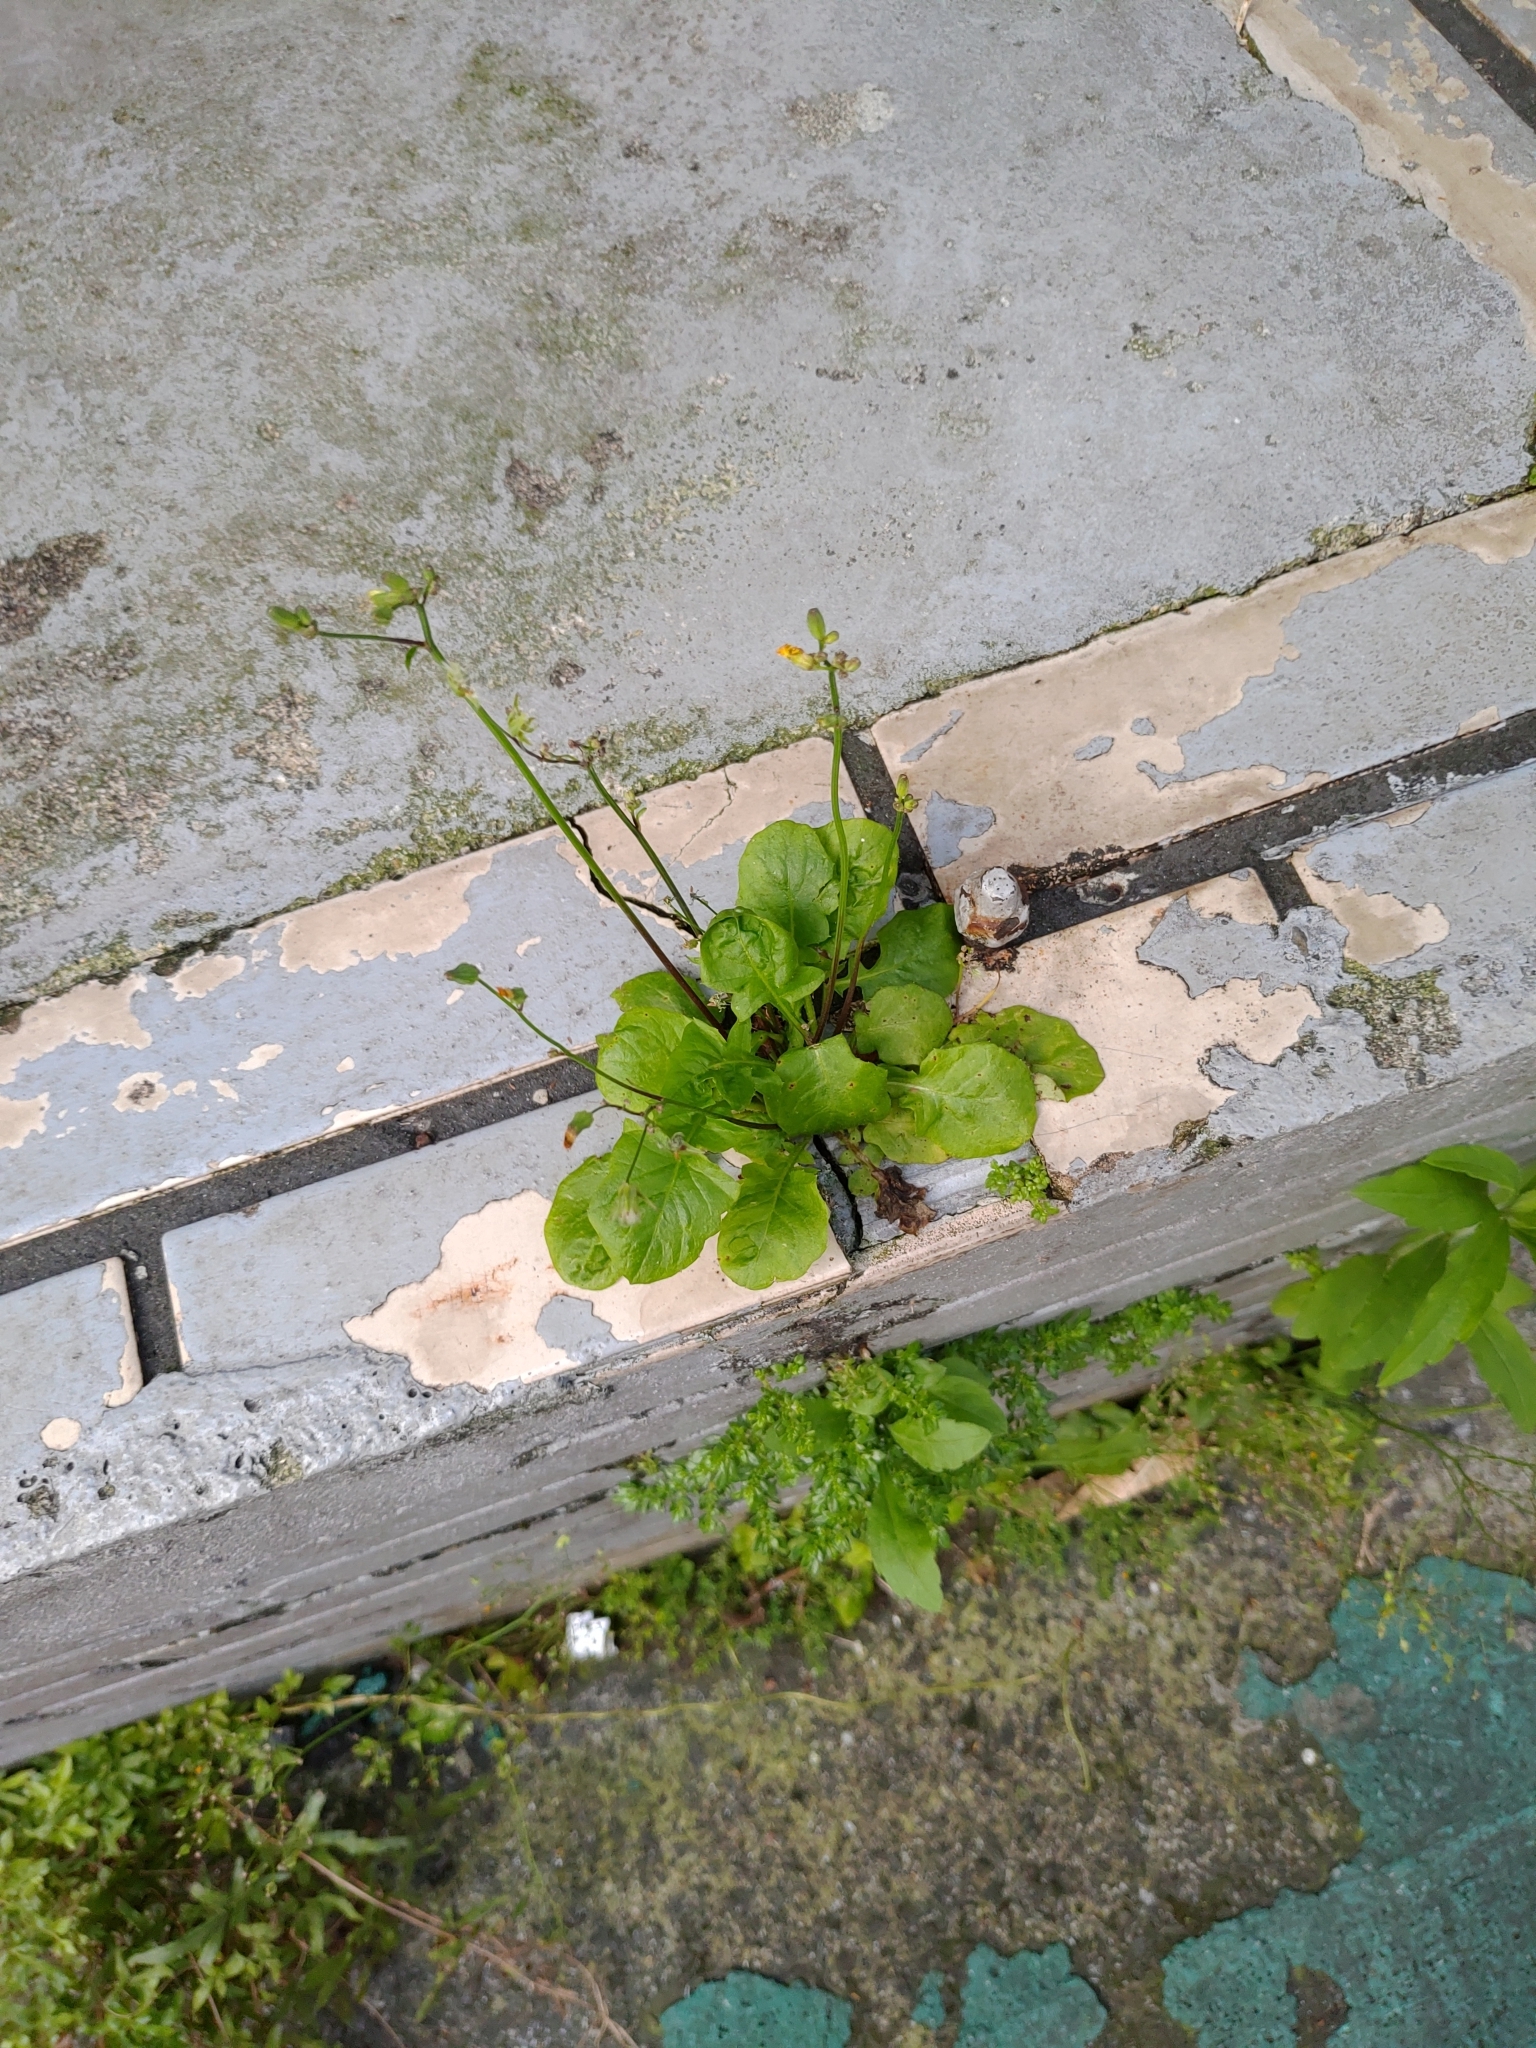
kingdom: Plantae
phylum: Tracheophyta
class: Magnoliopsida
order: Asterales
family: Asteraceae
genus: Youngia
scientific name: Youngia japonica
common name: Oriental false hawksbeard
